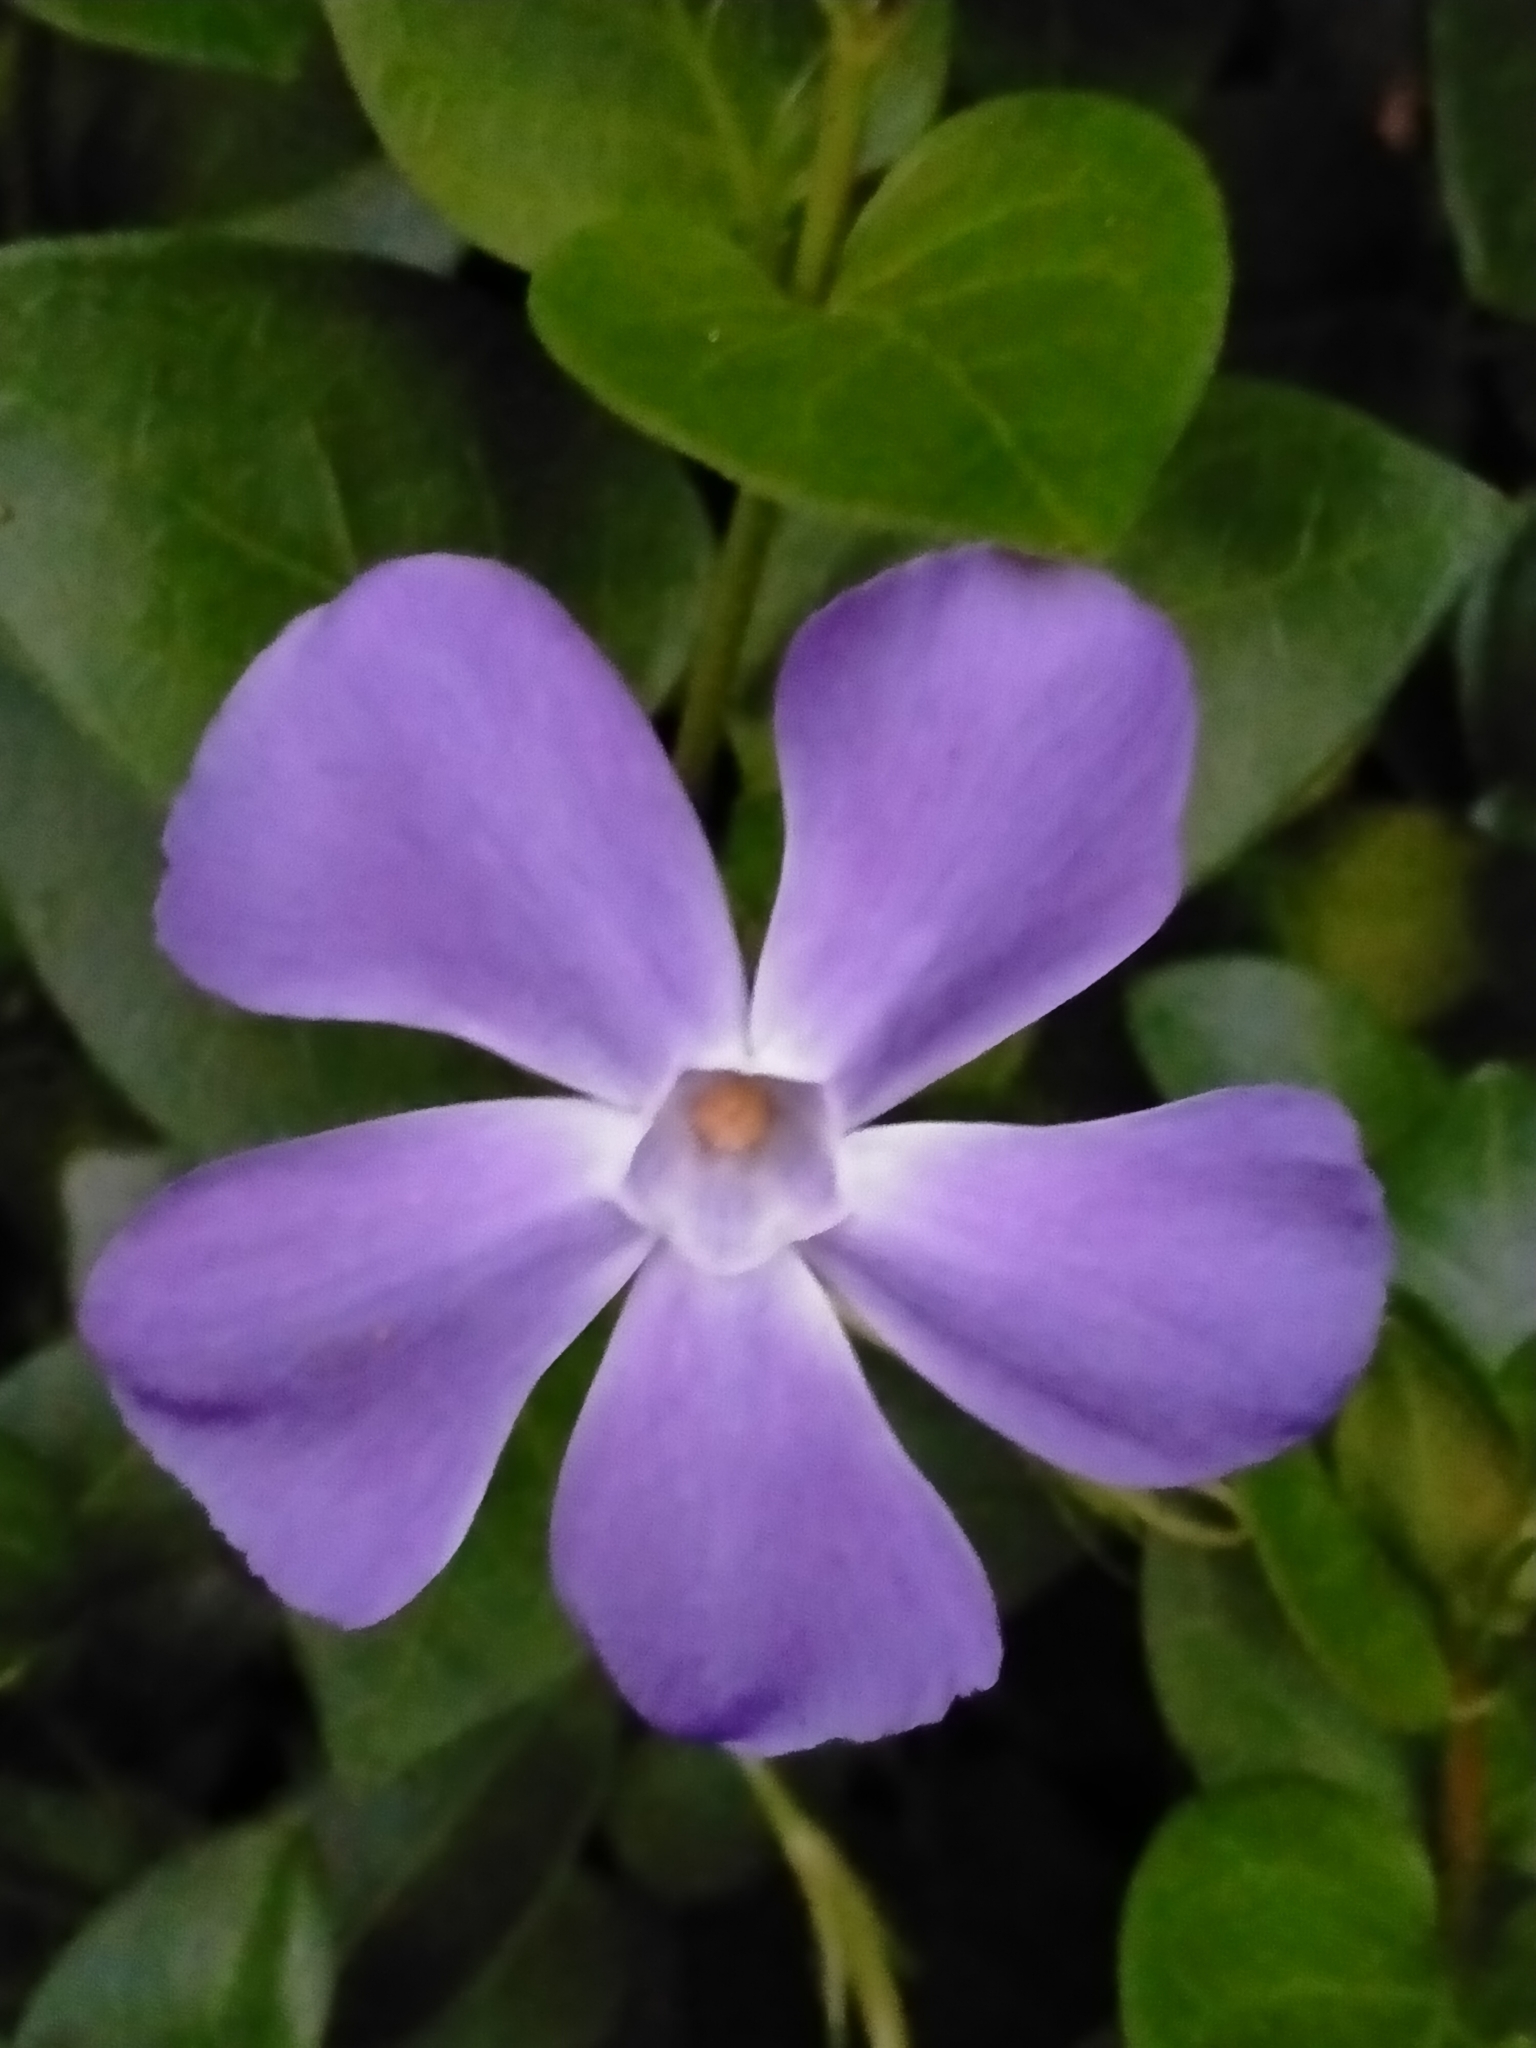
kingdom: Plantae
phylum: Tracheophyta
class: Magnoliopsida
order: Gentianales
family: Apocynaceae
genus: Vinca
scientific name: Vinca major
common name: Greater periwinkle
